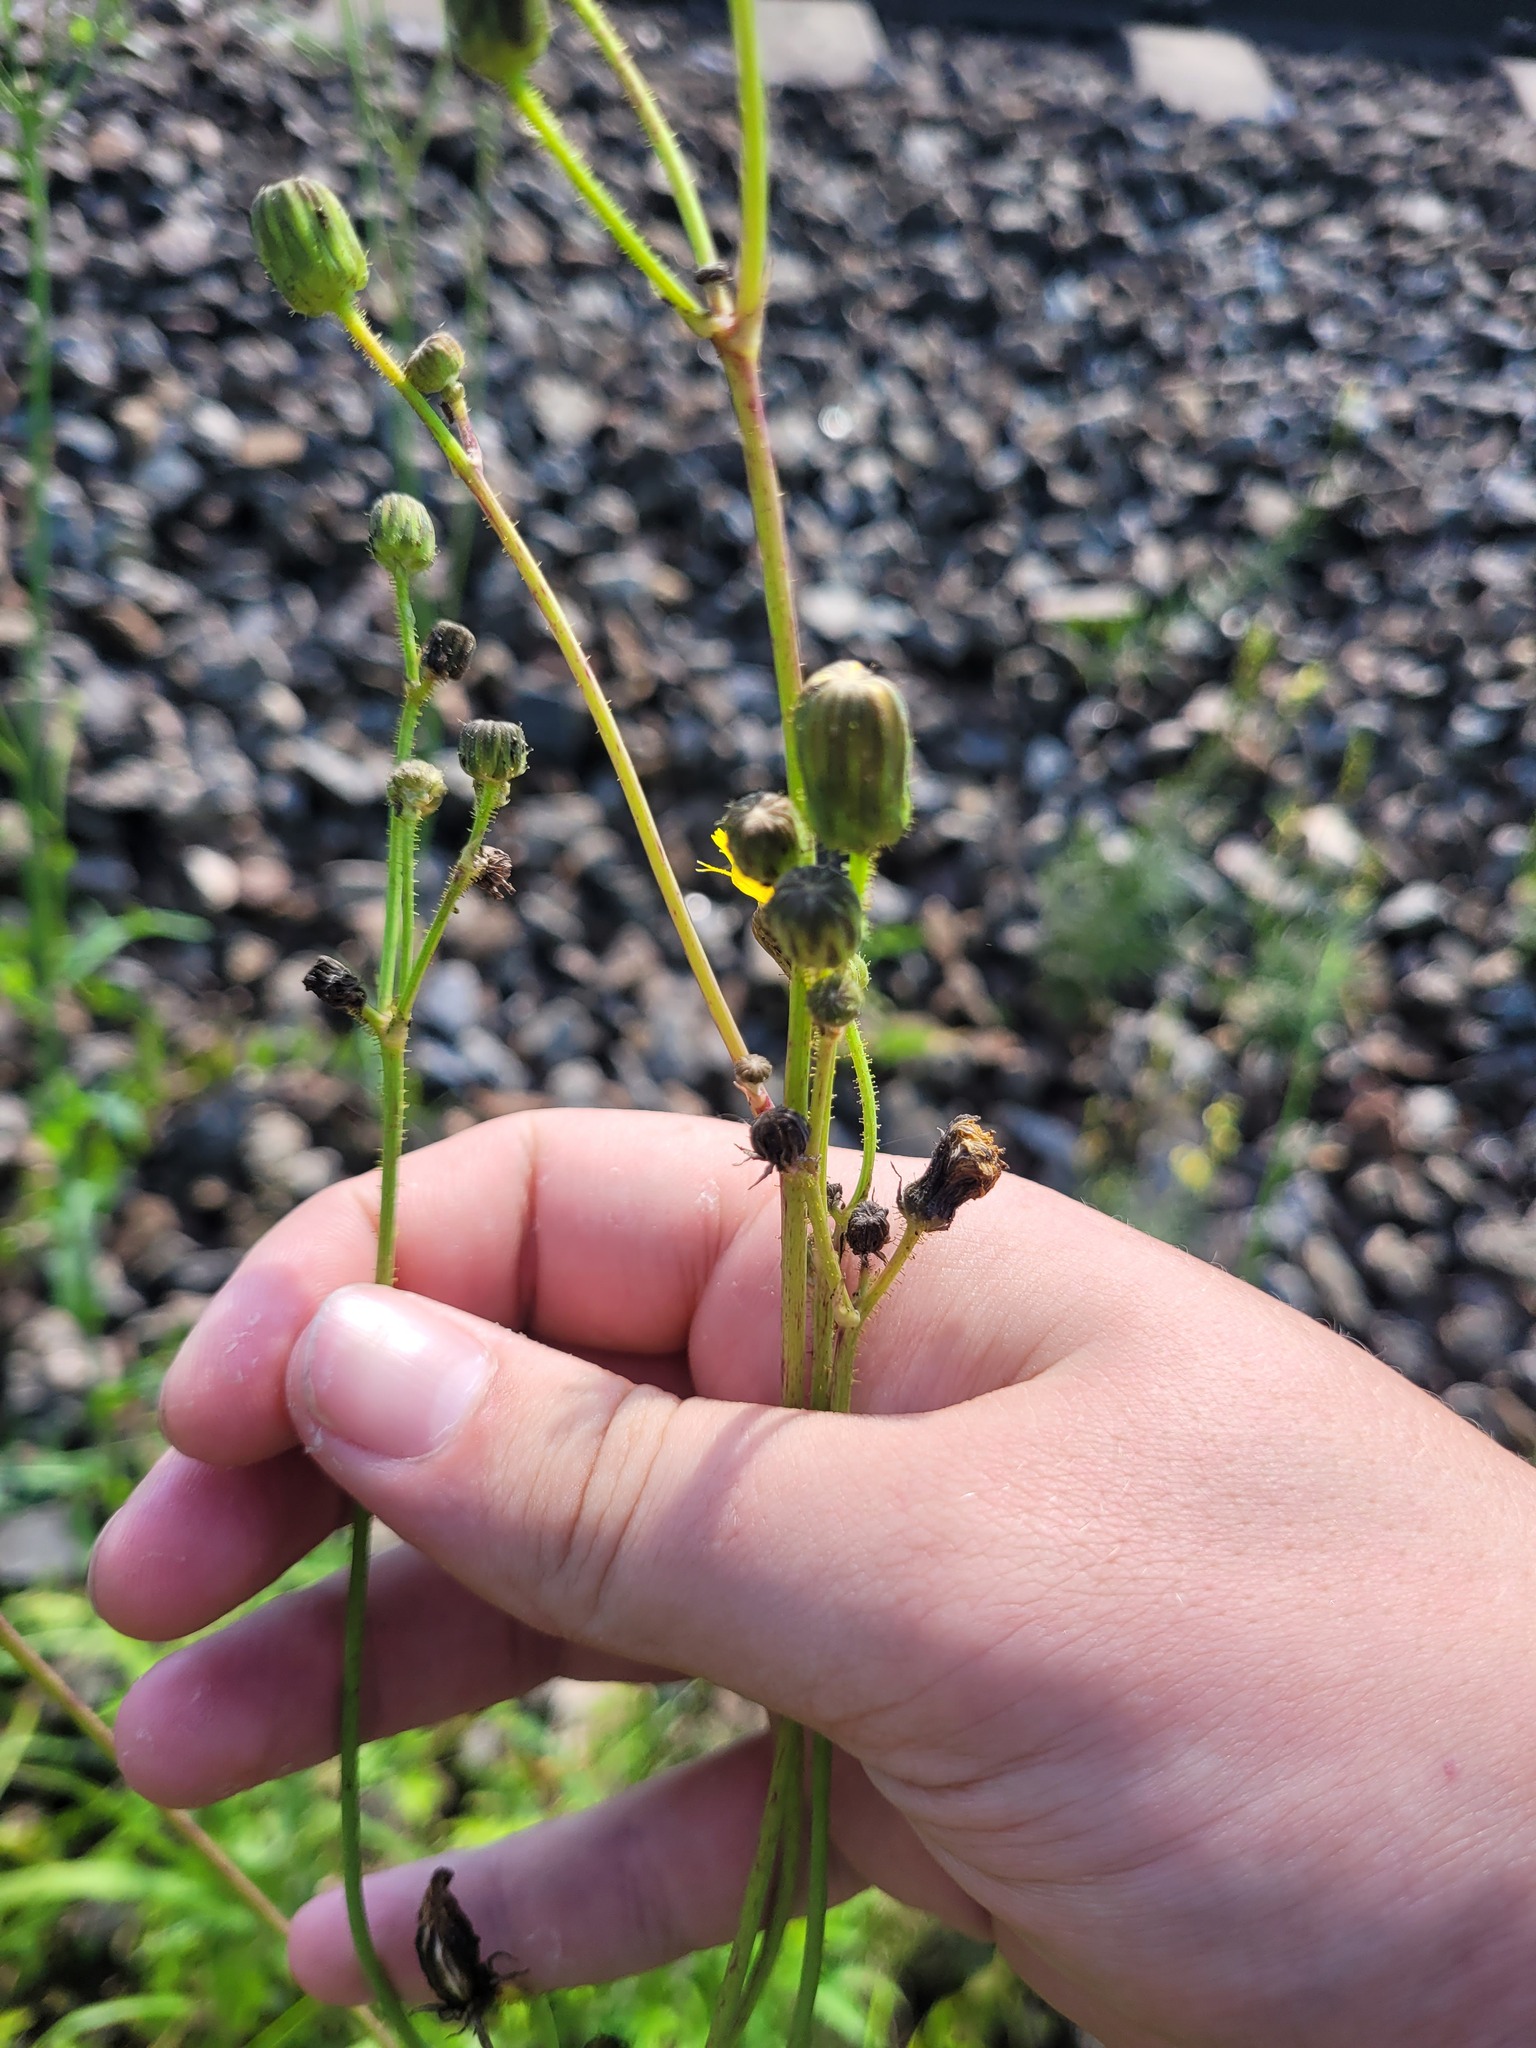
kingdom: Plantae
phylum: Tracheophyta
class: Magnoliopsida
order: Asterales
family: Asteraceae
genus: Sonchus
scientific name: Sonchus arvensis
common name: Perennial sow-thistle
